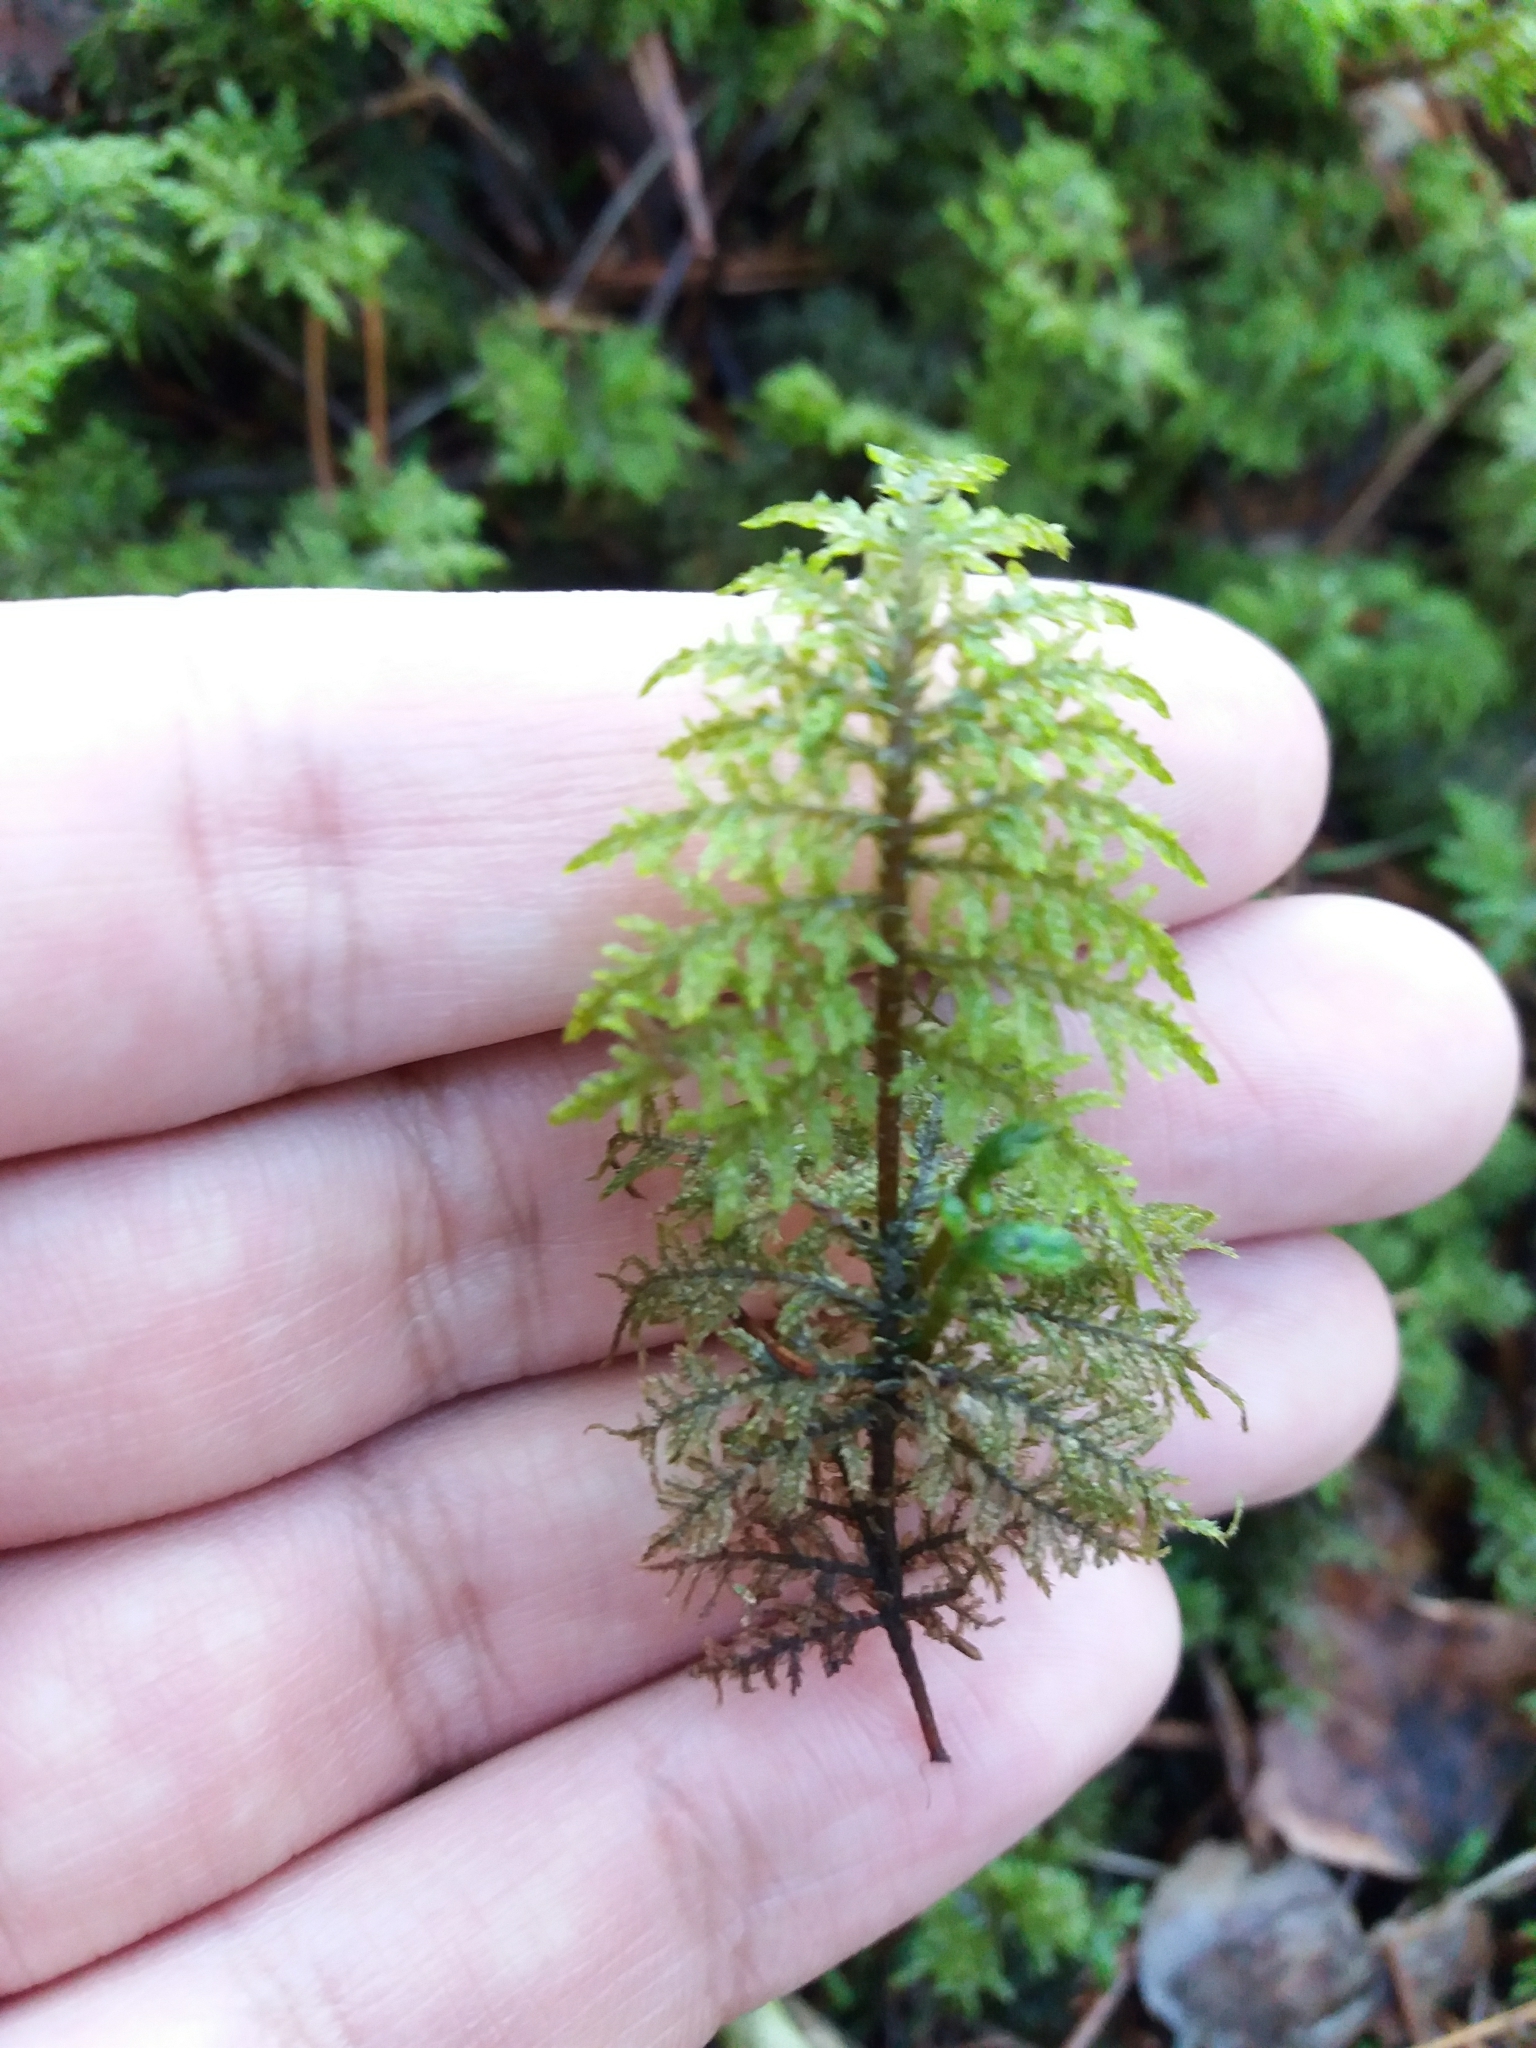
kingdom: Plantae
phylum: Bryophyta
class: Bryopsida
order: Hypnales
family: Hylocomiaceae
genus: Hylocomium
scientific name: Hylocomium splendens
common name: Stairstep moss
